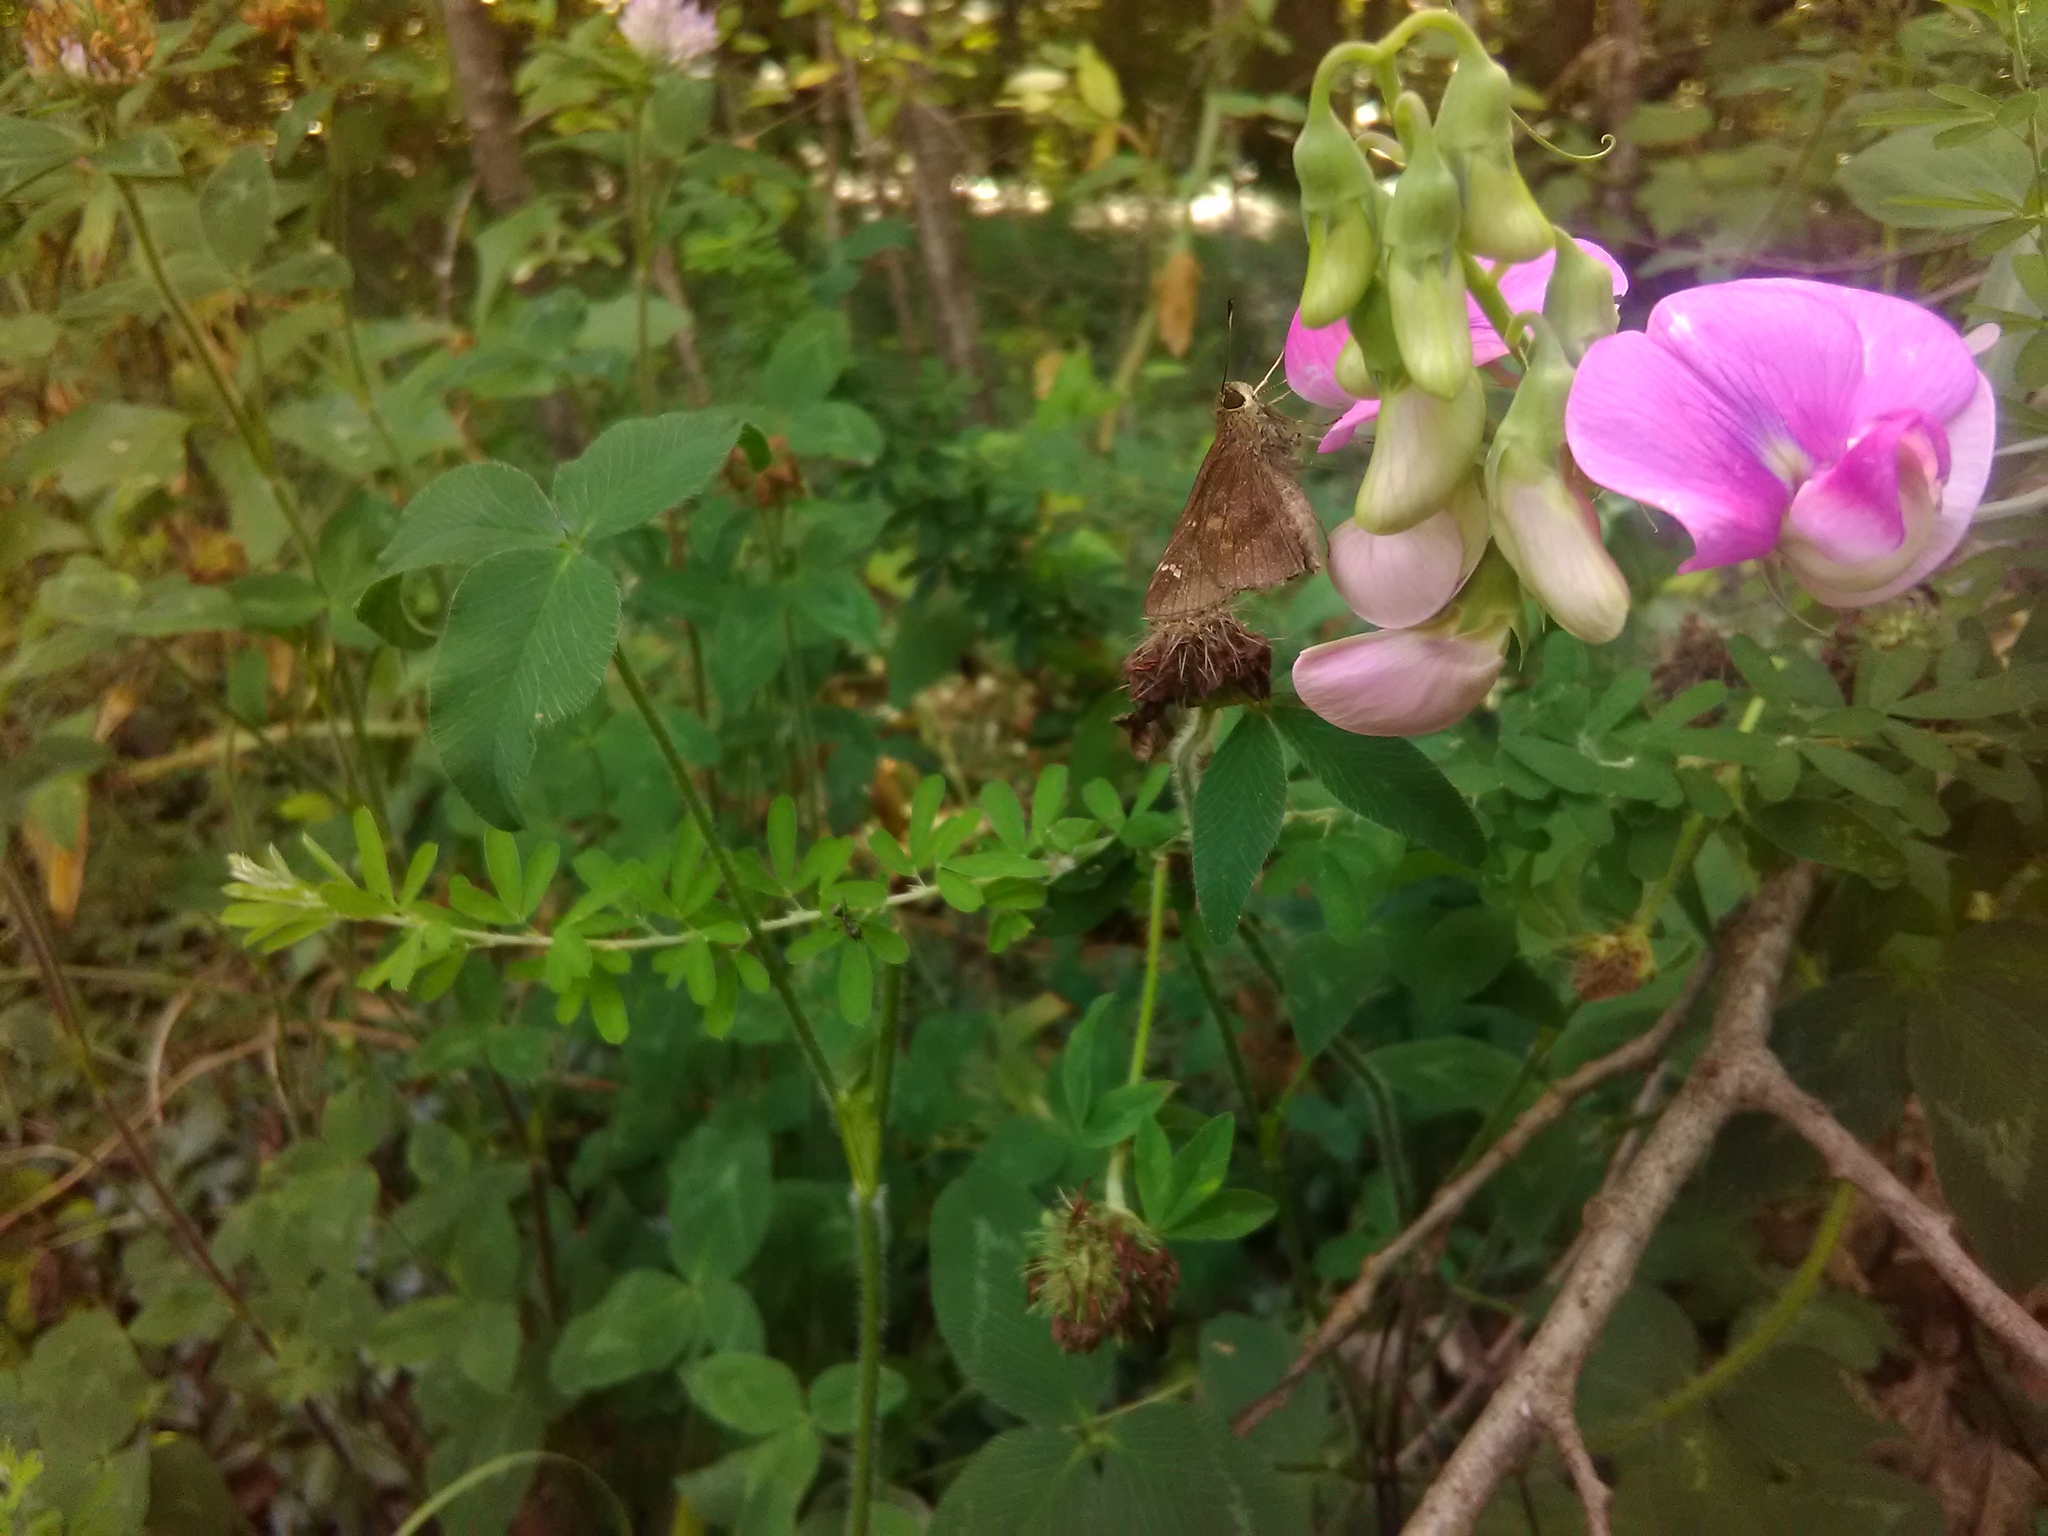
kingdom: Animalia
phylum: Arthropoda
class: Insecta
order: Lepidoptera
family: Hesperiidae
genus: Lerema
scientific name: Lerema accius
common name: Clouded skipper
